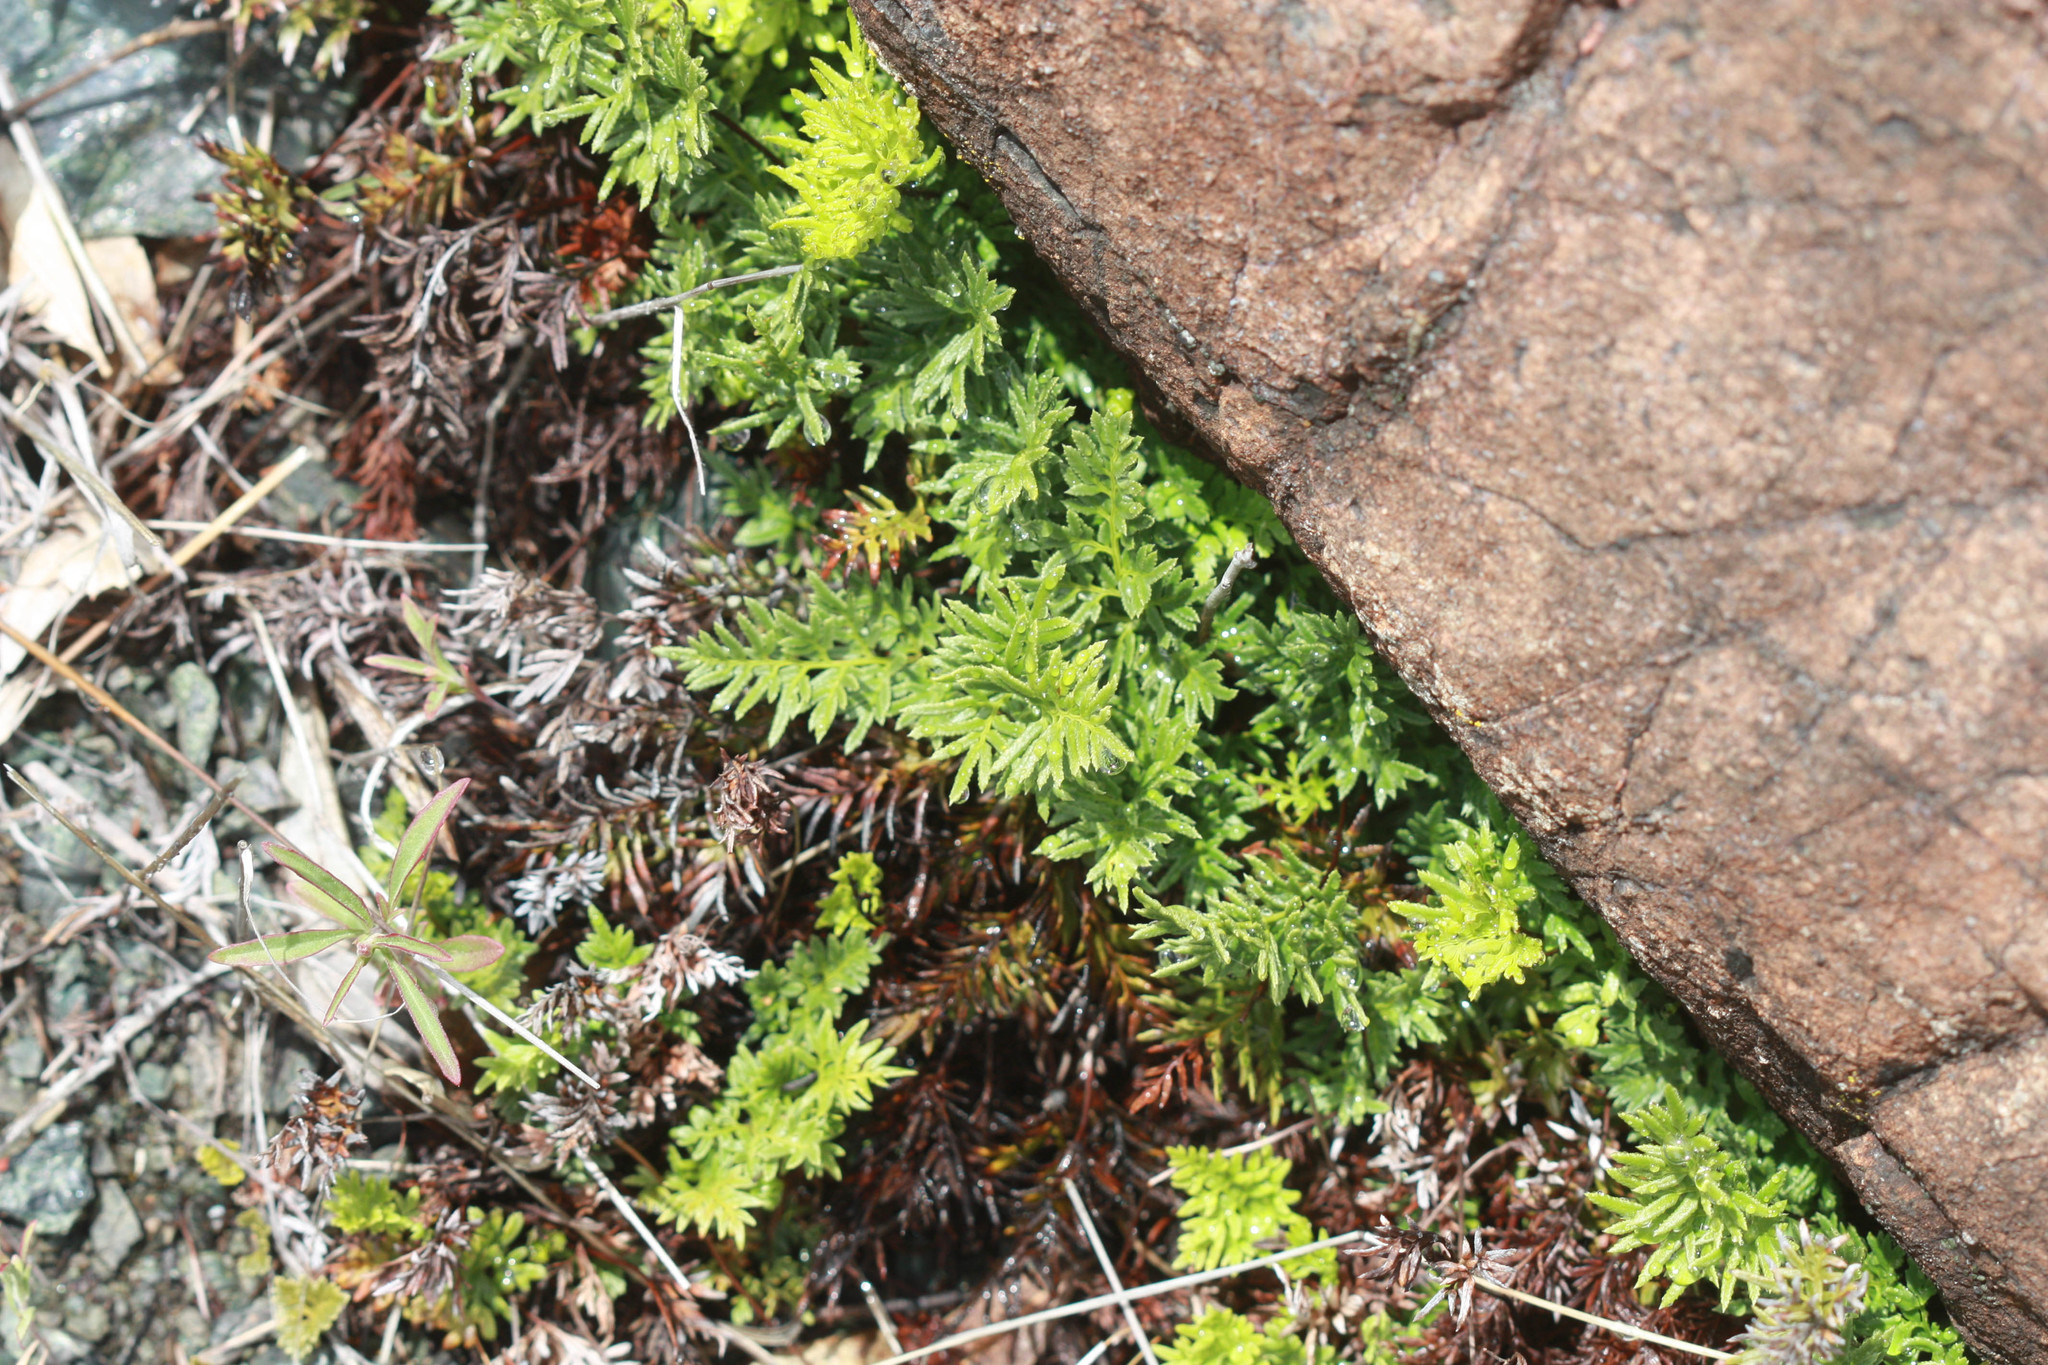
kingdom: Plantae
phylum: Tracheophyta
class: Polypodiopsida
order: Polypodiales
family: Pteridaceae
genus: Aspidotis
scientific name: Aspidotis densa
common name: Indian's dream
